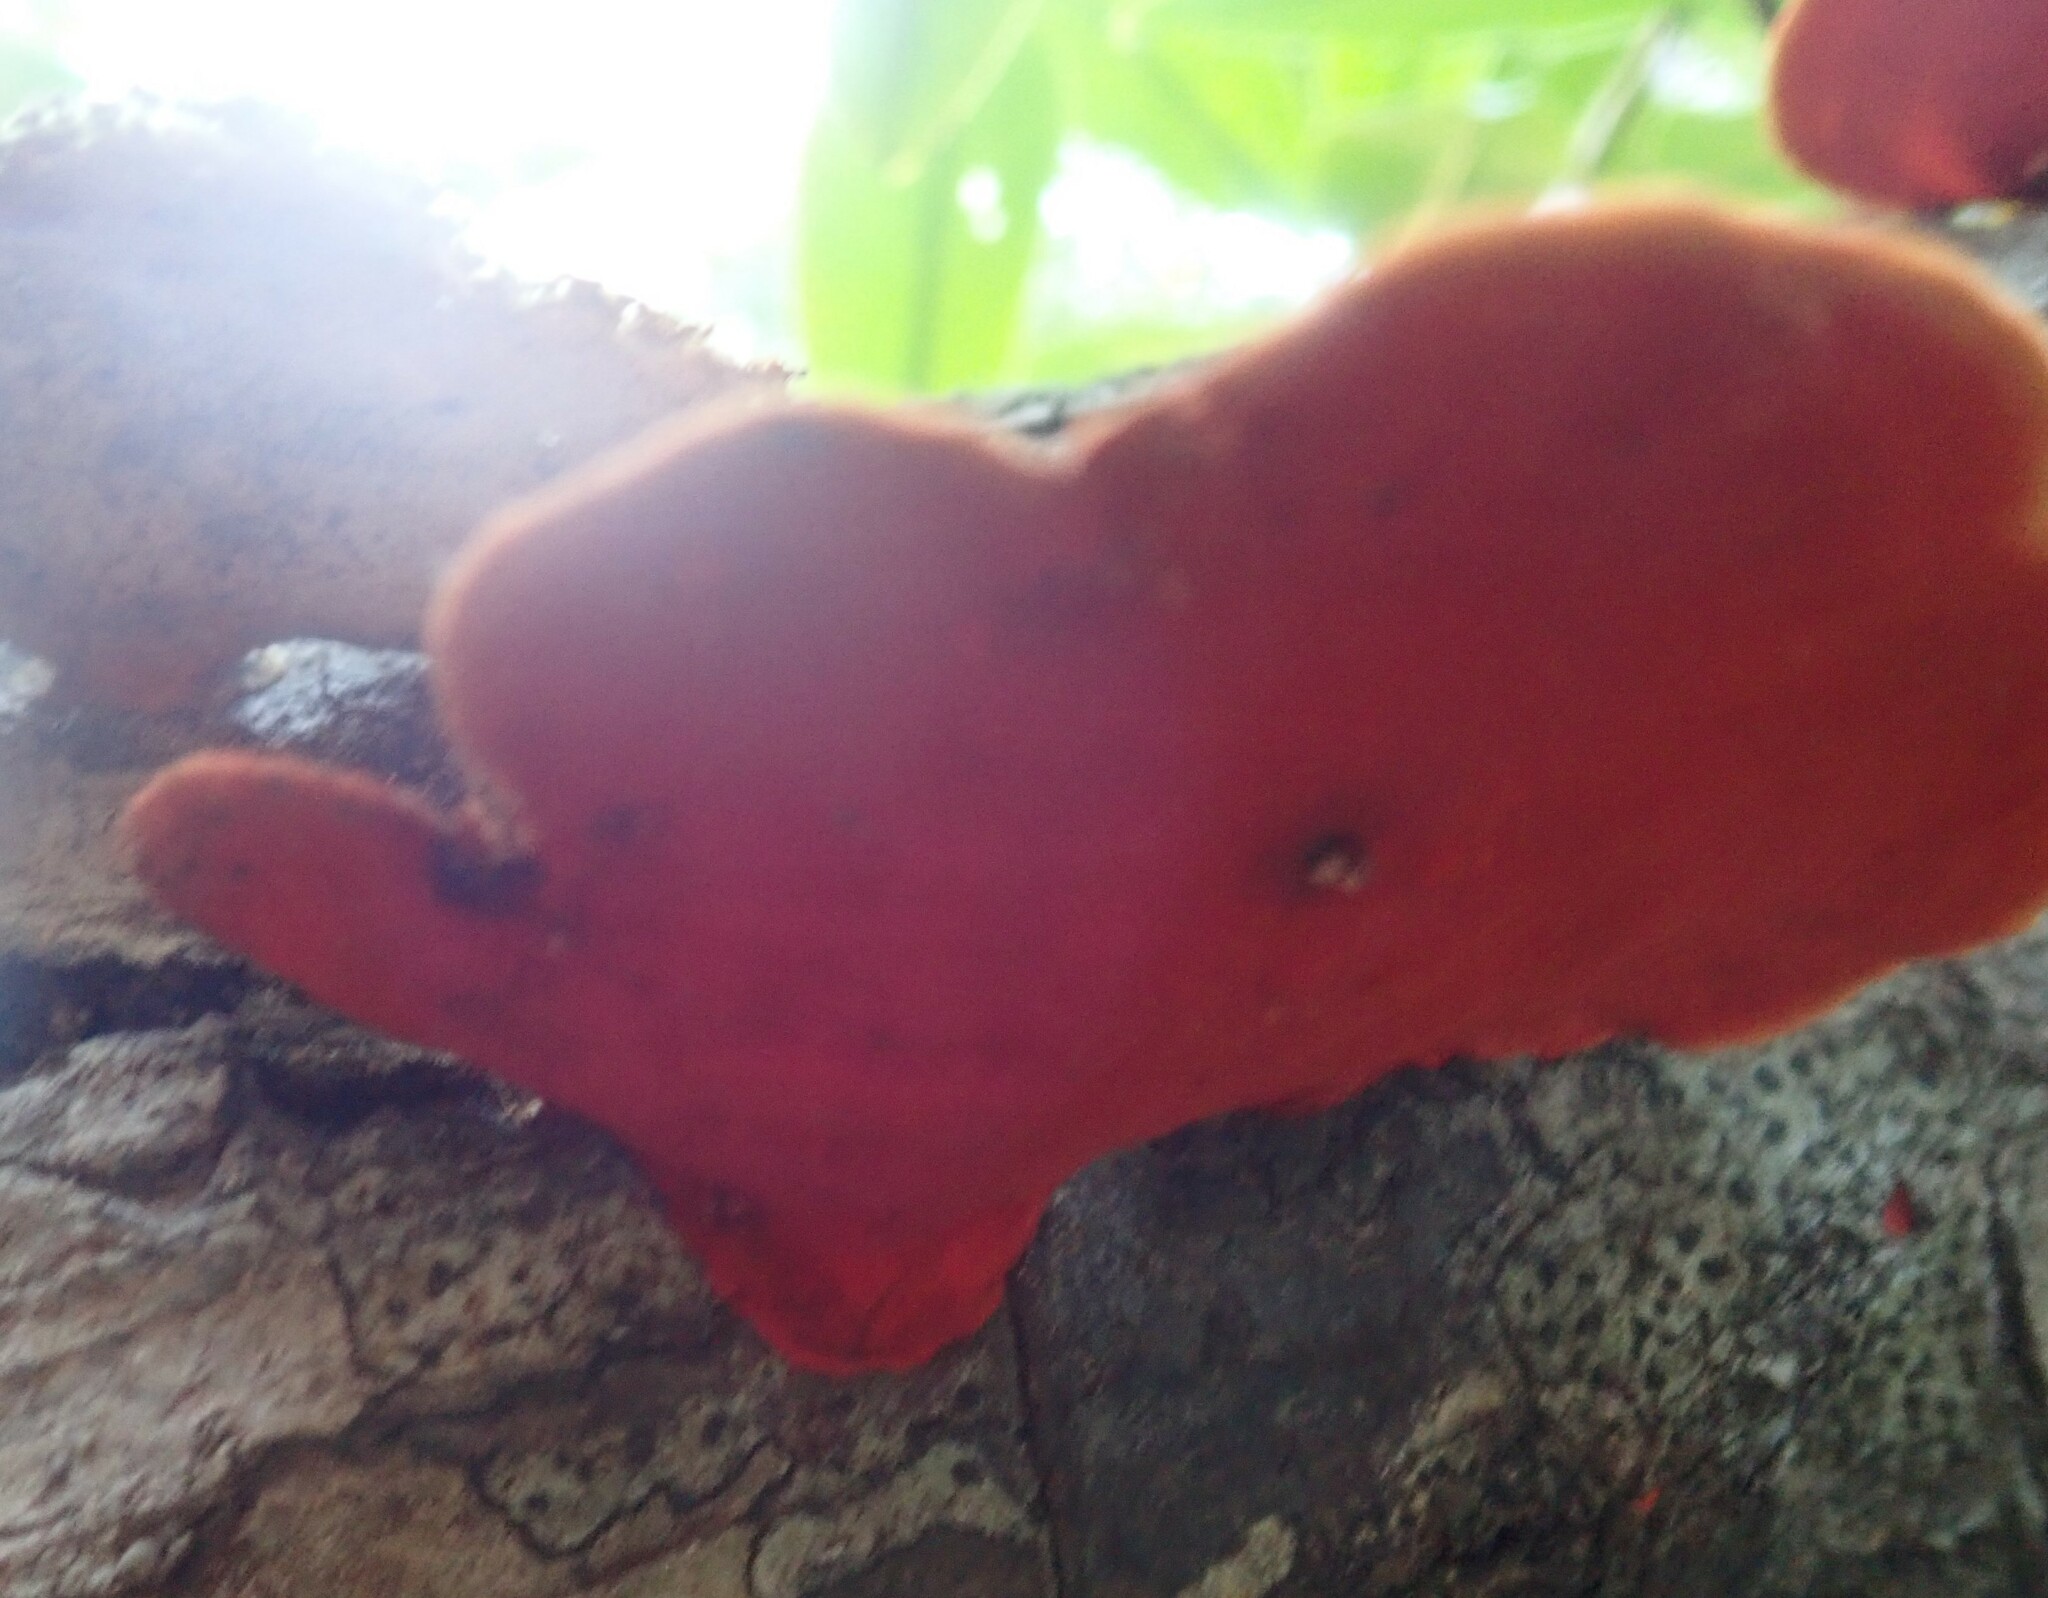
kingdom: Fungi
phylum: Basidiomycota
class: Agaricomycetes
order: Polyporales
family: Polyporaceae
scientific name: Polyporaceae
